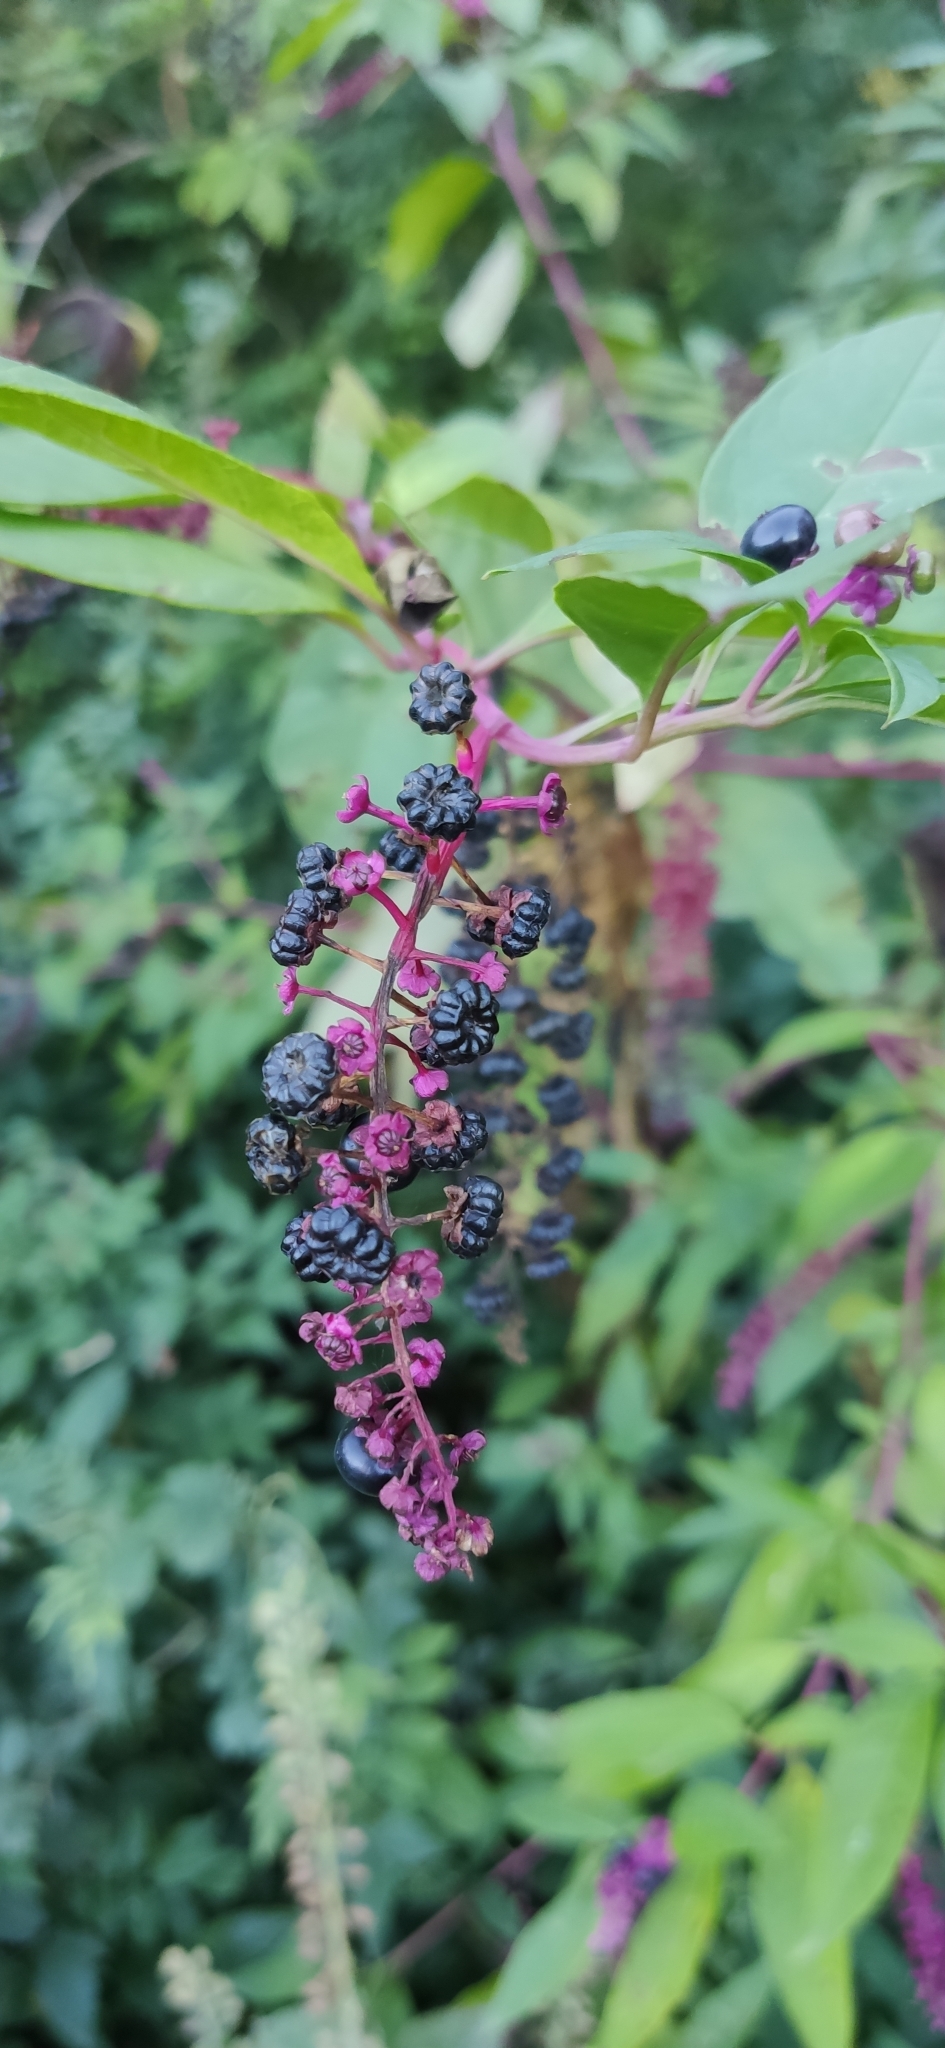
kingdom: Plantae
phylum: Tracheophyta
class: Magnoliopsida
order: Caryophyllales
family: Phytolaccaceae
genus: Phytolacca
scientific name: Phytolacca americana
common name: American pokeweed
